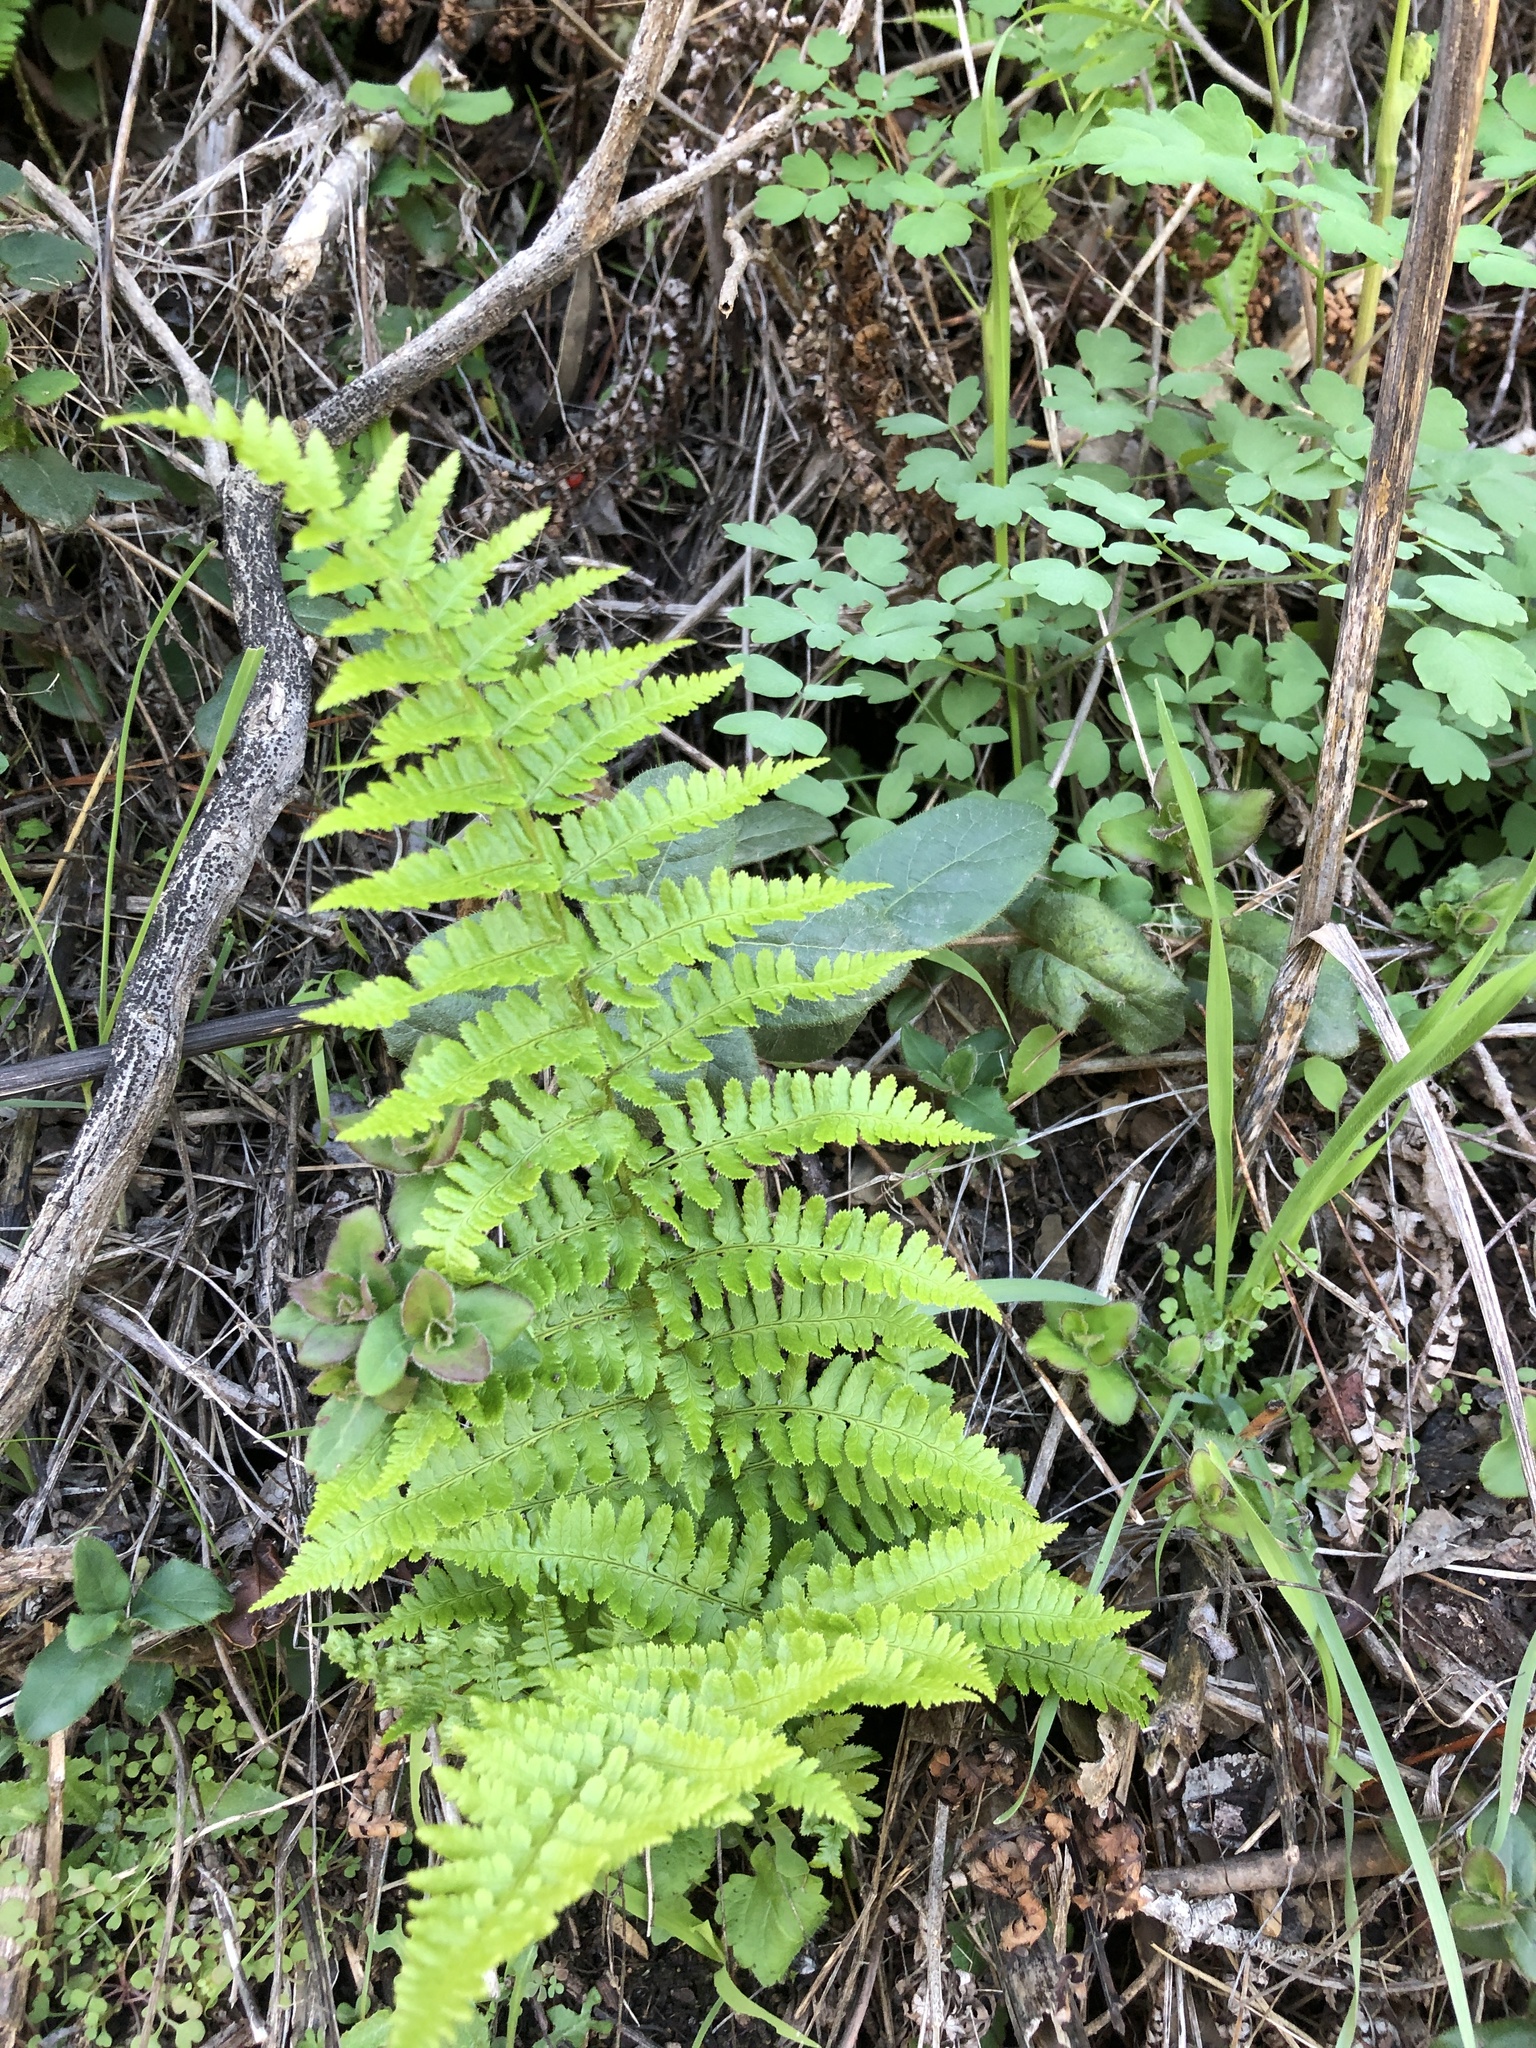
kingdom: Plantae
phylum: Tracheophyta
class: Polypodiopsida
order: Polypodiales
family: Dryopteridaceae
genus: Dryopteris
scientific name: Dryopteris arguta
